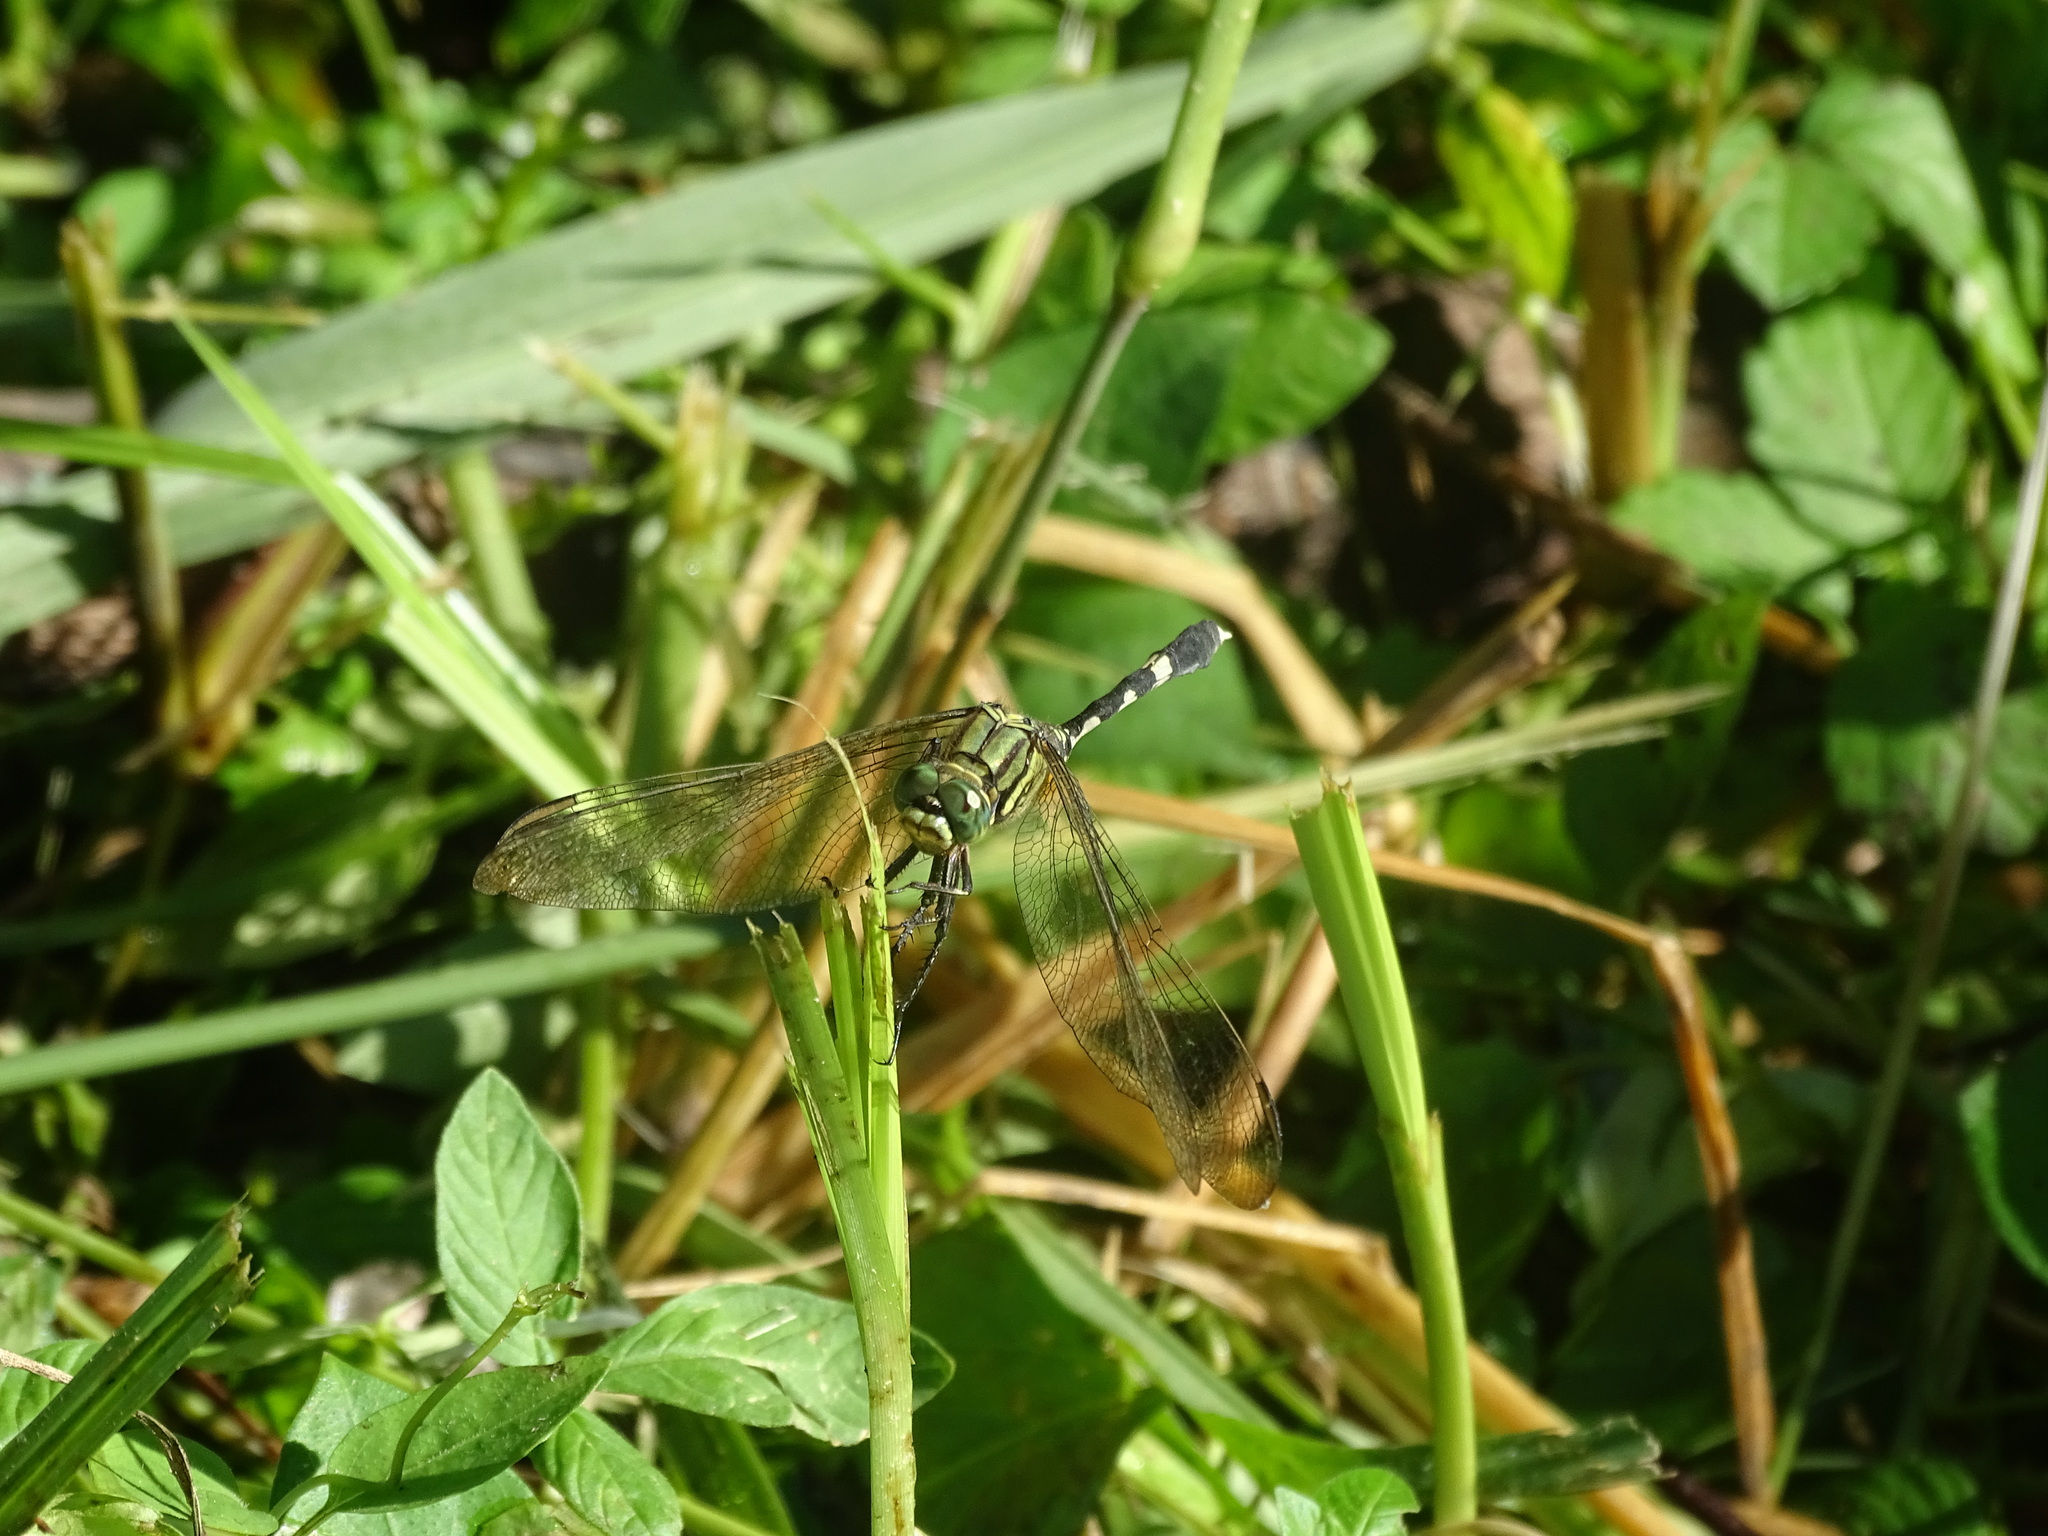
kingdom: Animalia
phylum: Arthropoda
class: Insecta
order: Odonata
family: Libellulidae
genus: Orthetrum
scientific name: Orthetrum sabina
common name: Slender skimmer
